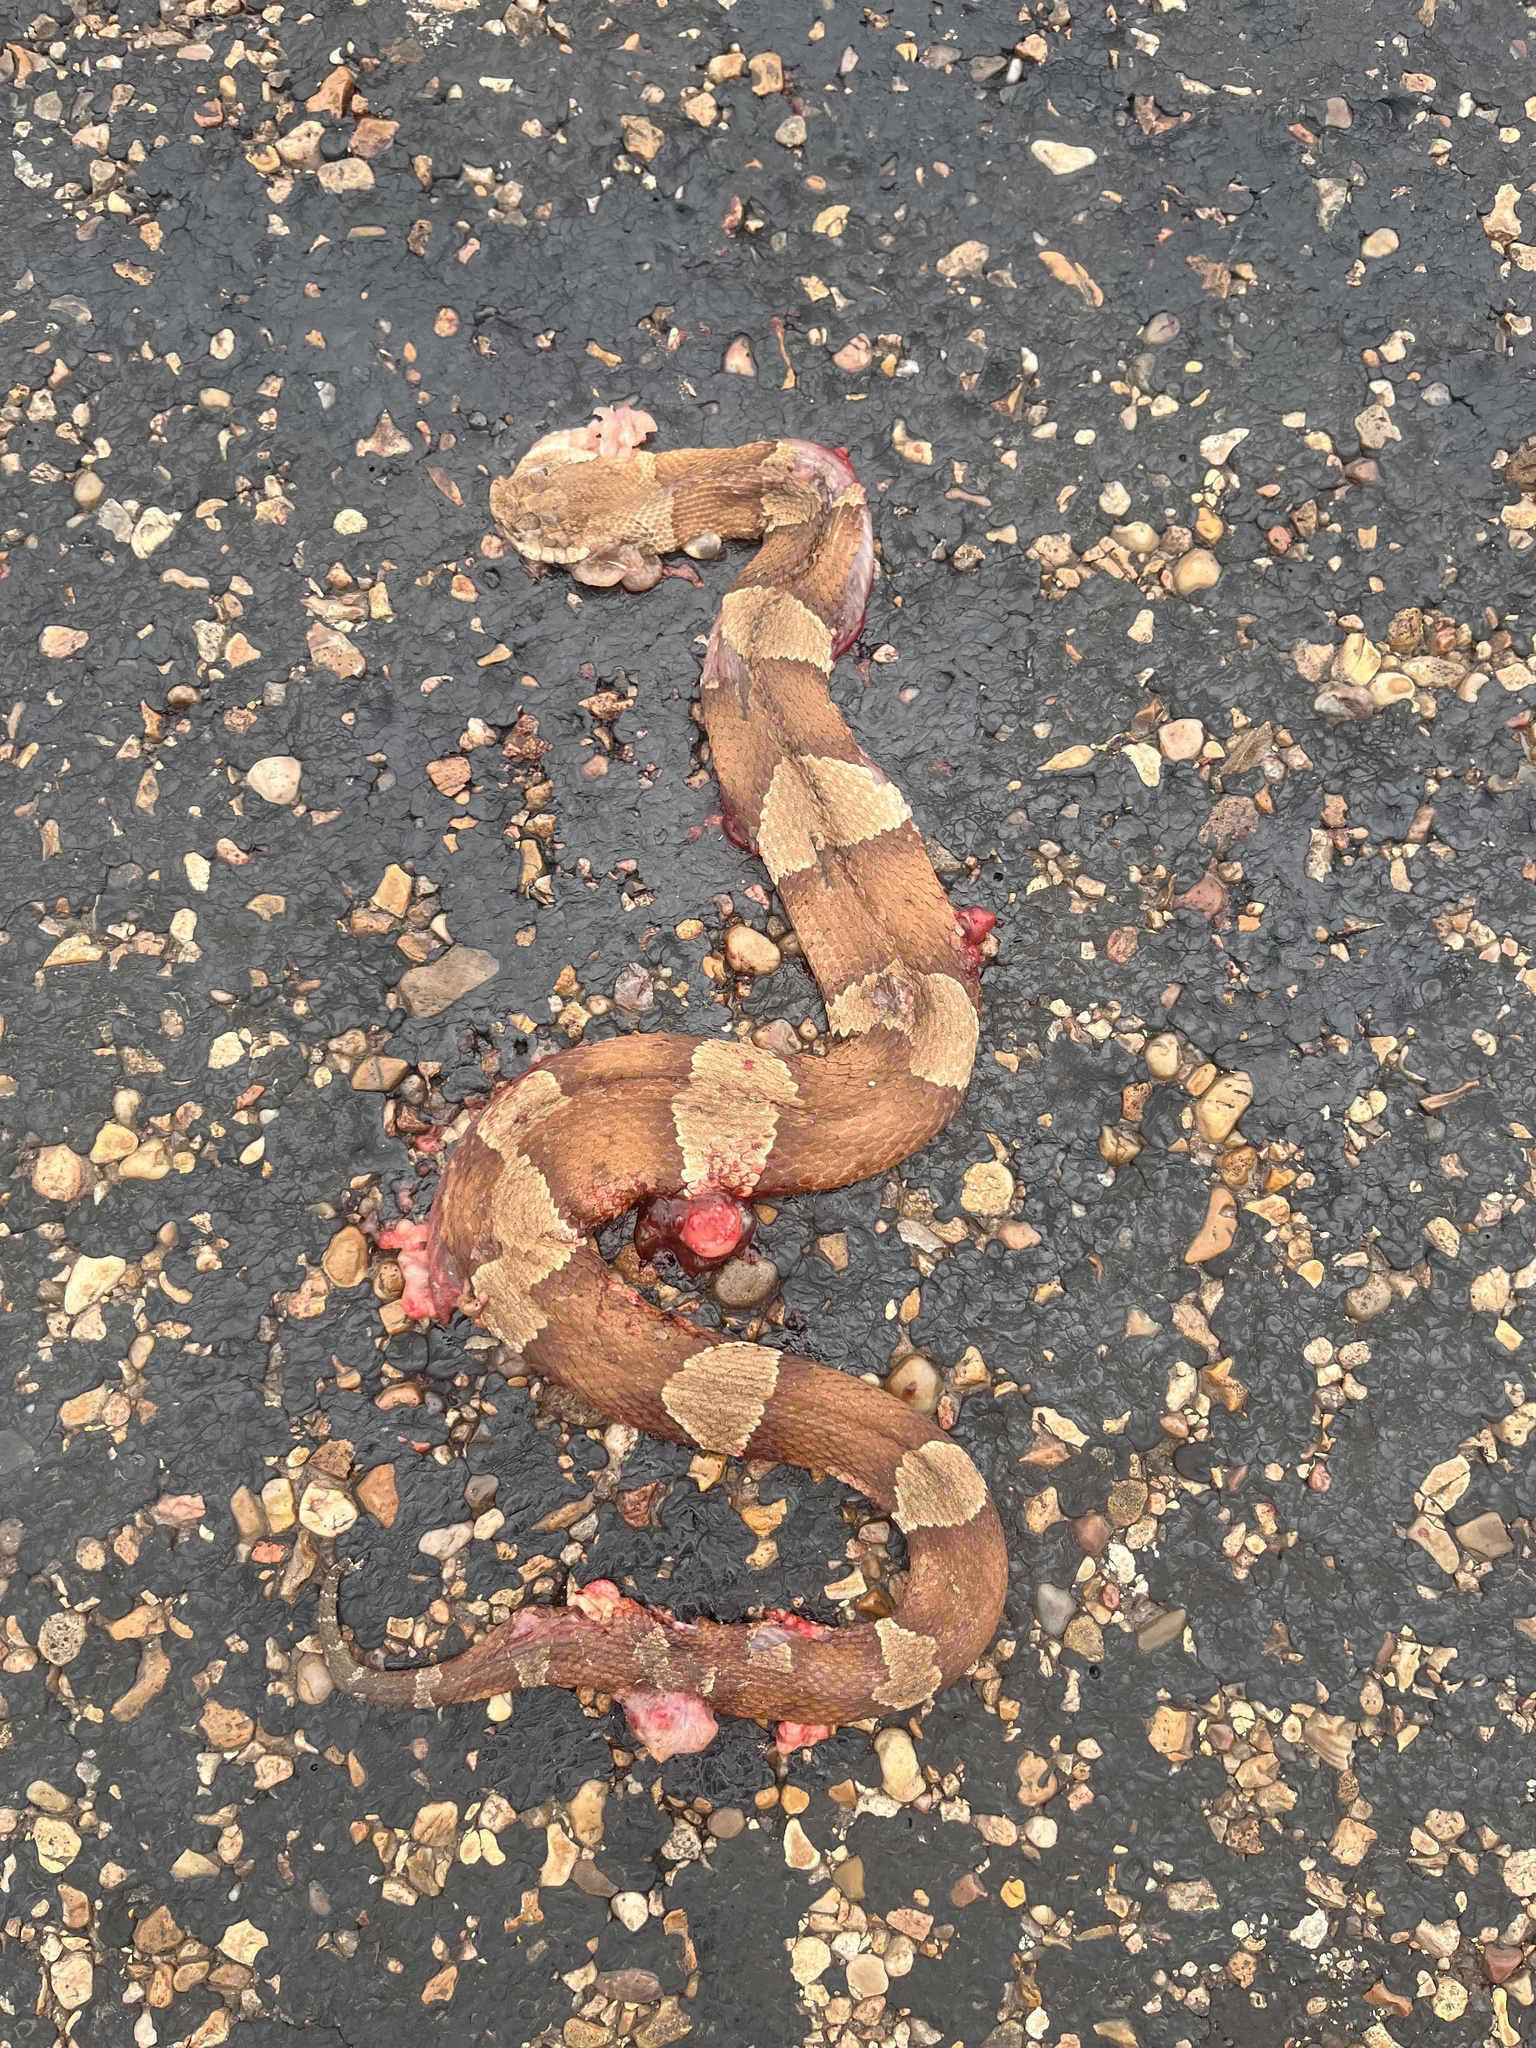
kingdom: Animalia
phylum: Chordata
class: Squamata
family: Viperidae
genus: Agkistrodon
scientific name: Agkistrodon laticinctus
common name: Broad-banded copperhead
